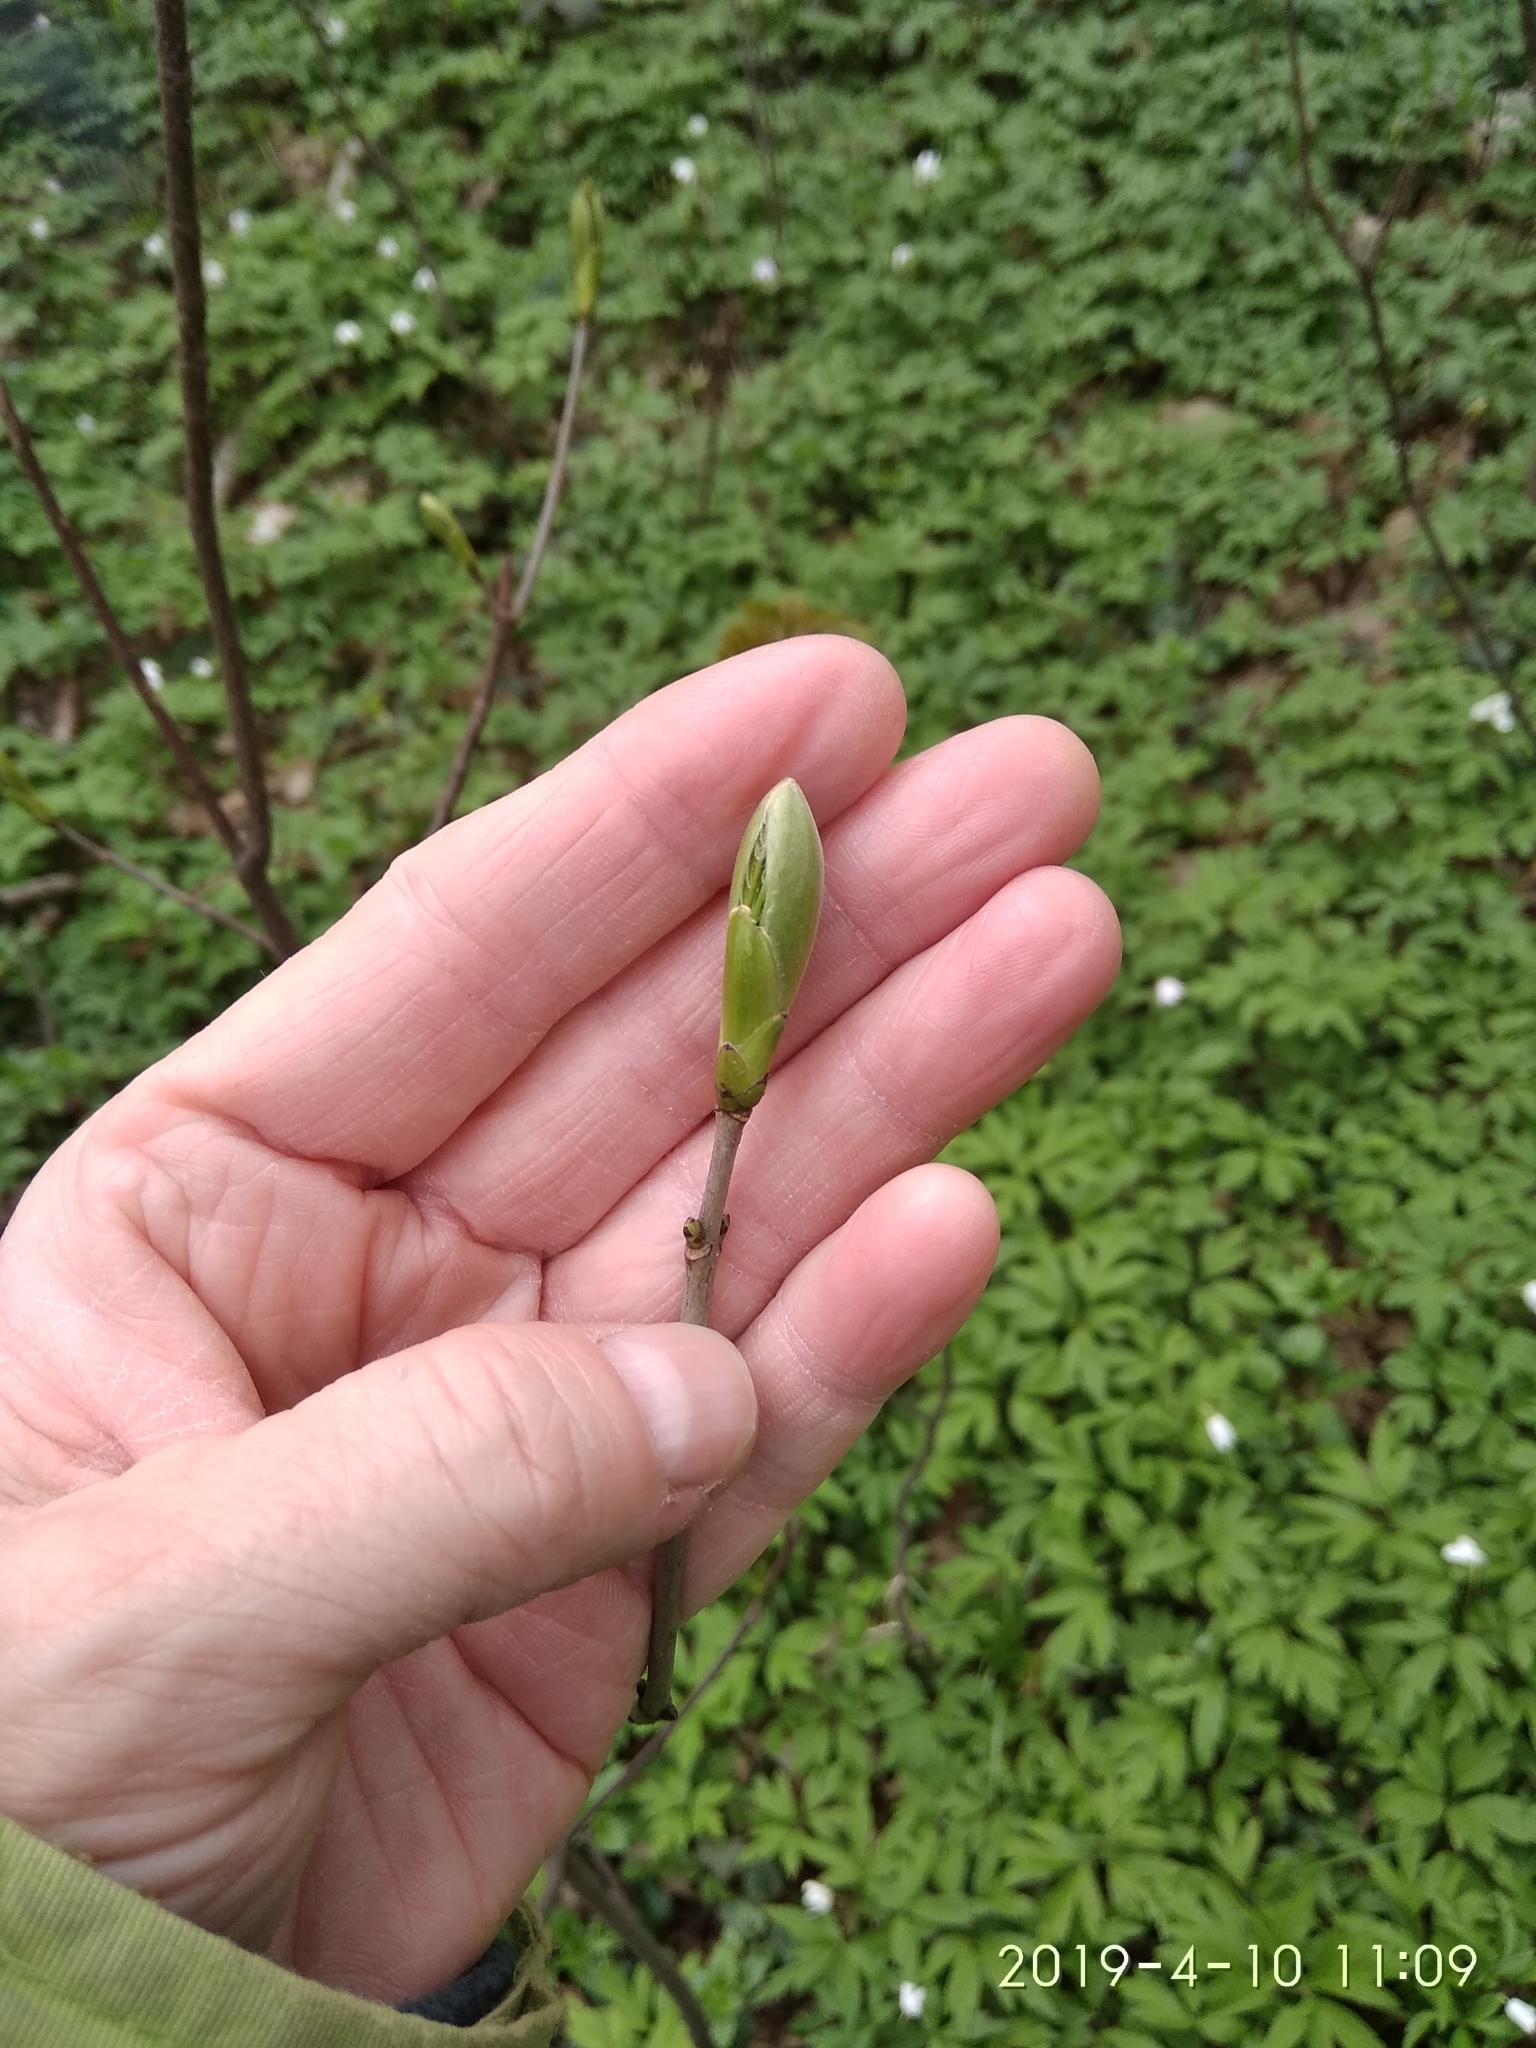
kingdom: Plantae
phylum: Tracheophyta
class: Magnoliopsida
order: Sapindales
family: Sapindaceae
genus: Acer
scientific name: Acer pseudoplatanus
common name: Sycamore
